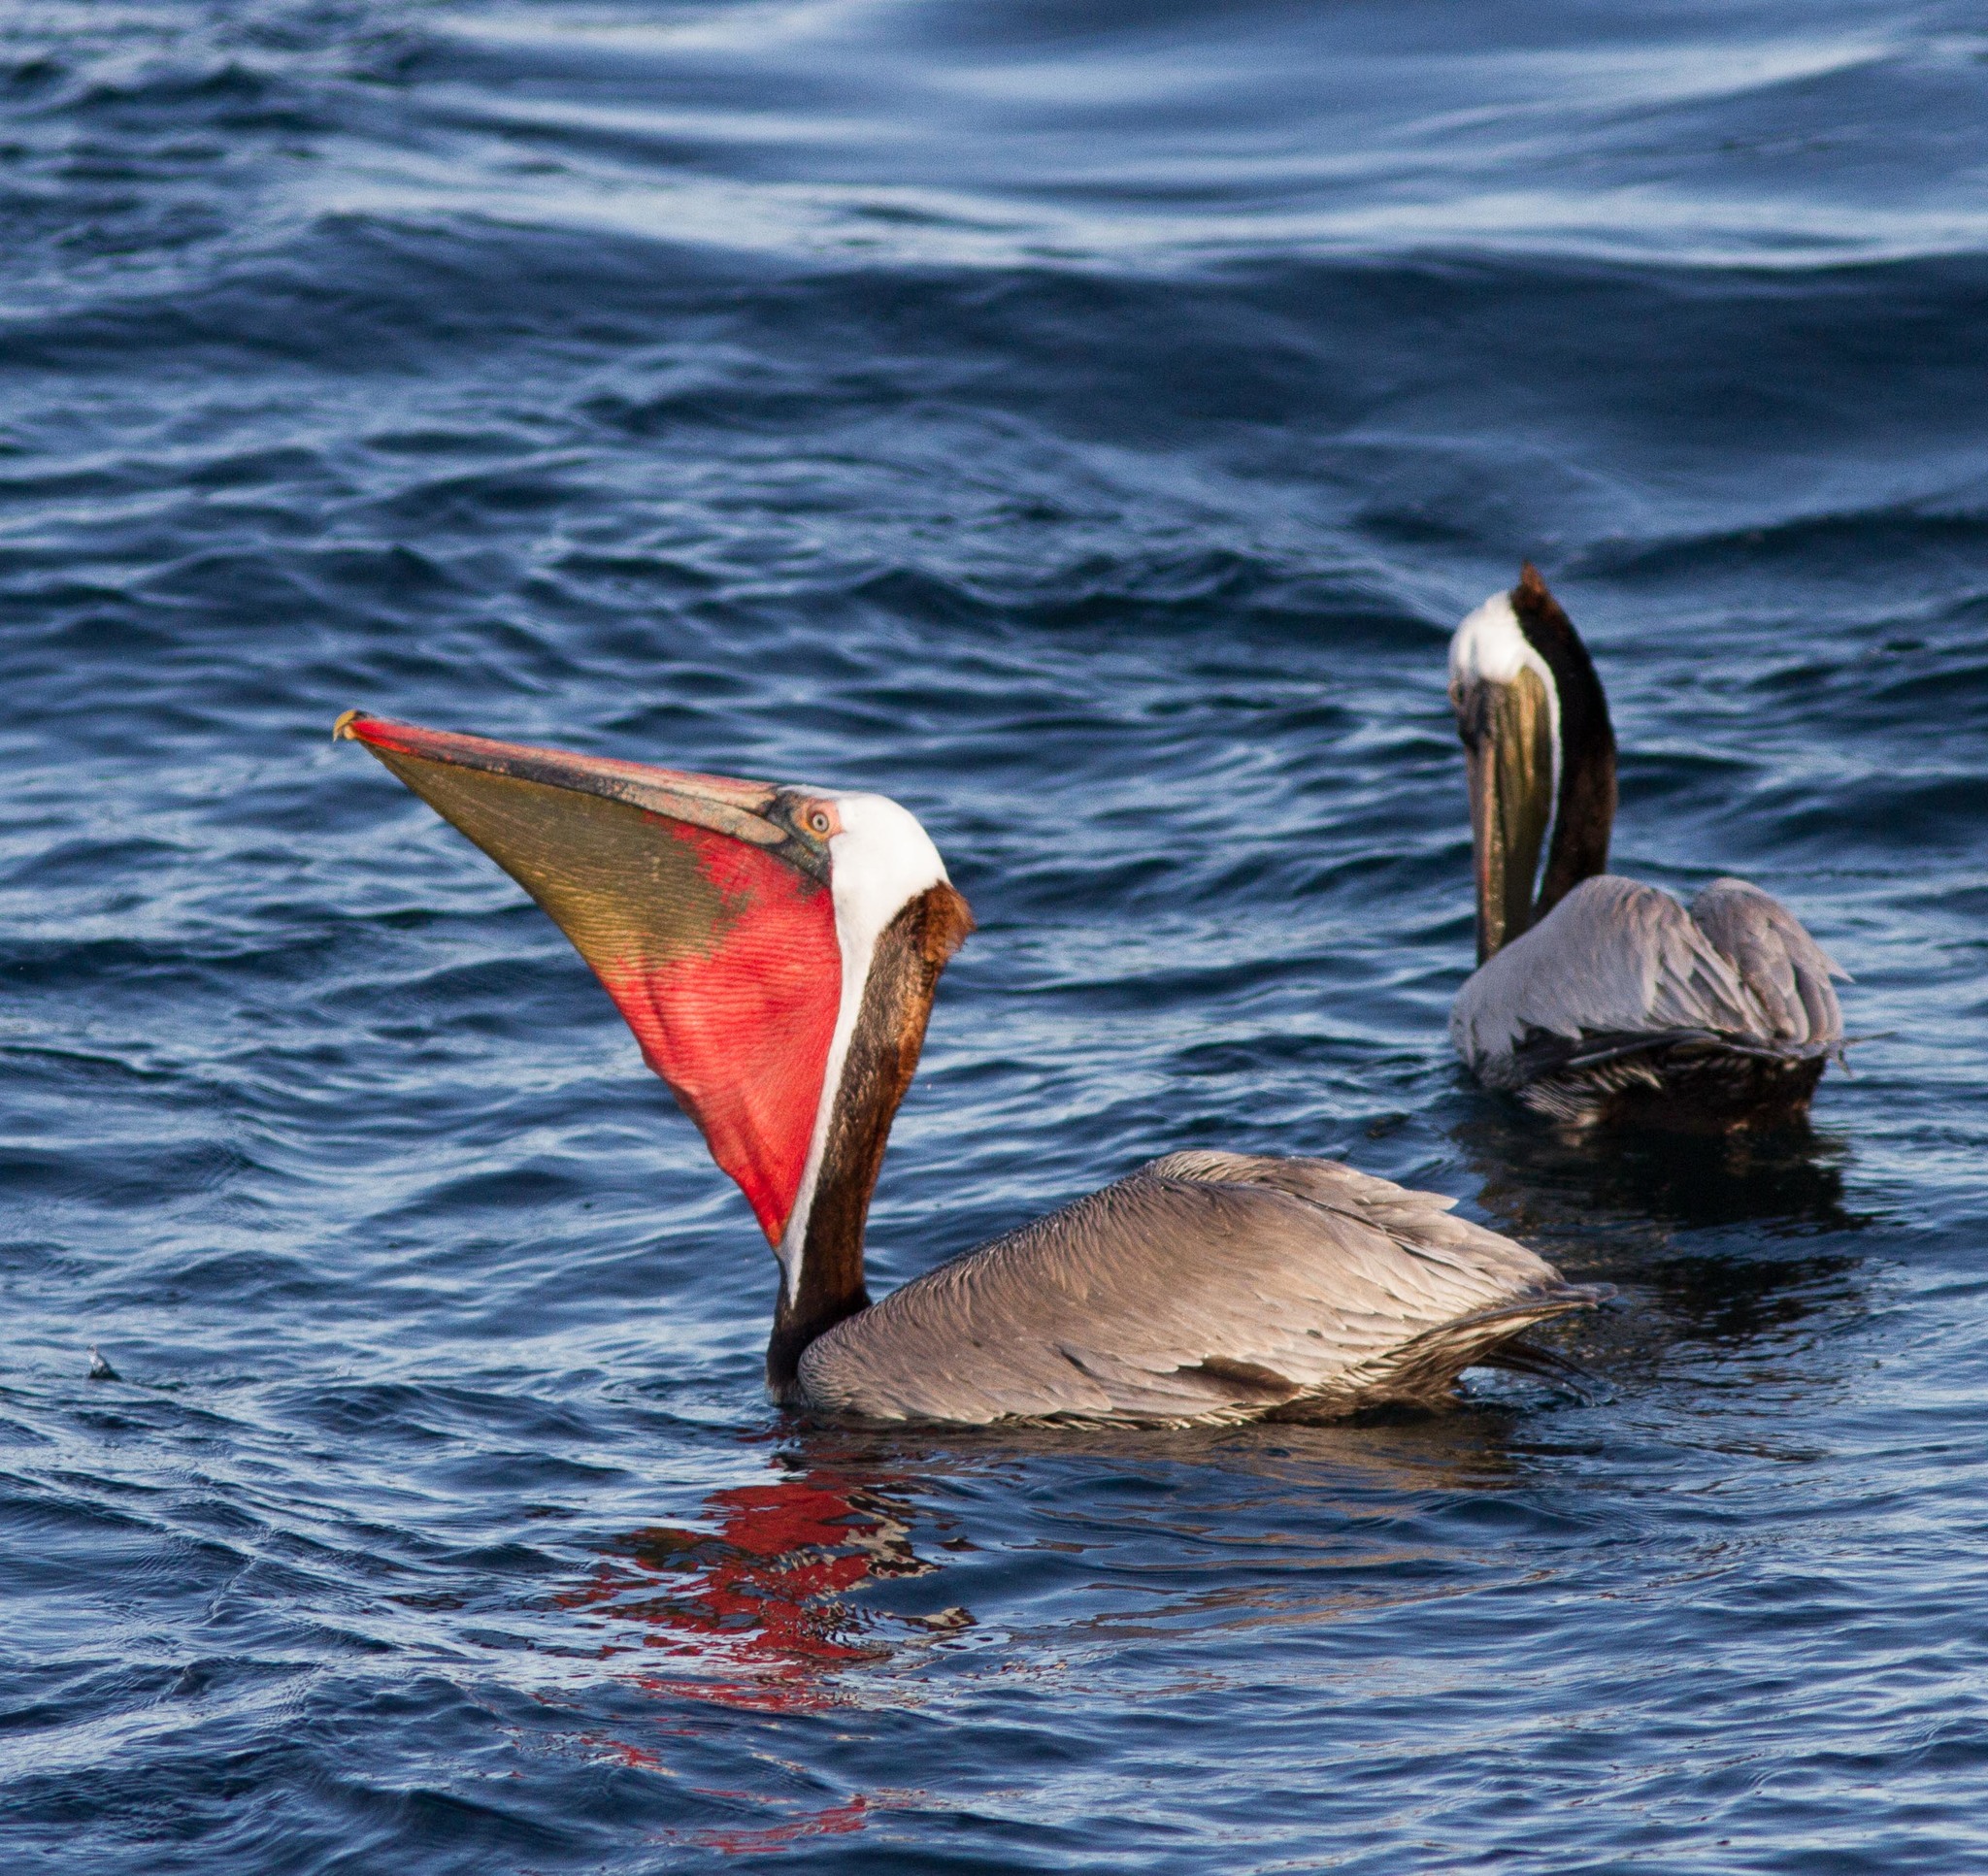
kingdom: Animalia
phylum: Chordata
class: Aves
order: Pelecaniformes
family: Pelecanidae
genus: Pelecanus
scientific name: Pelecanus occidentalis
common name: Brown pelican
